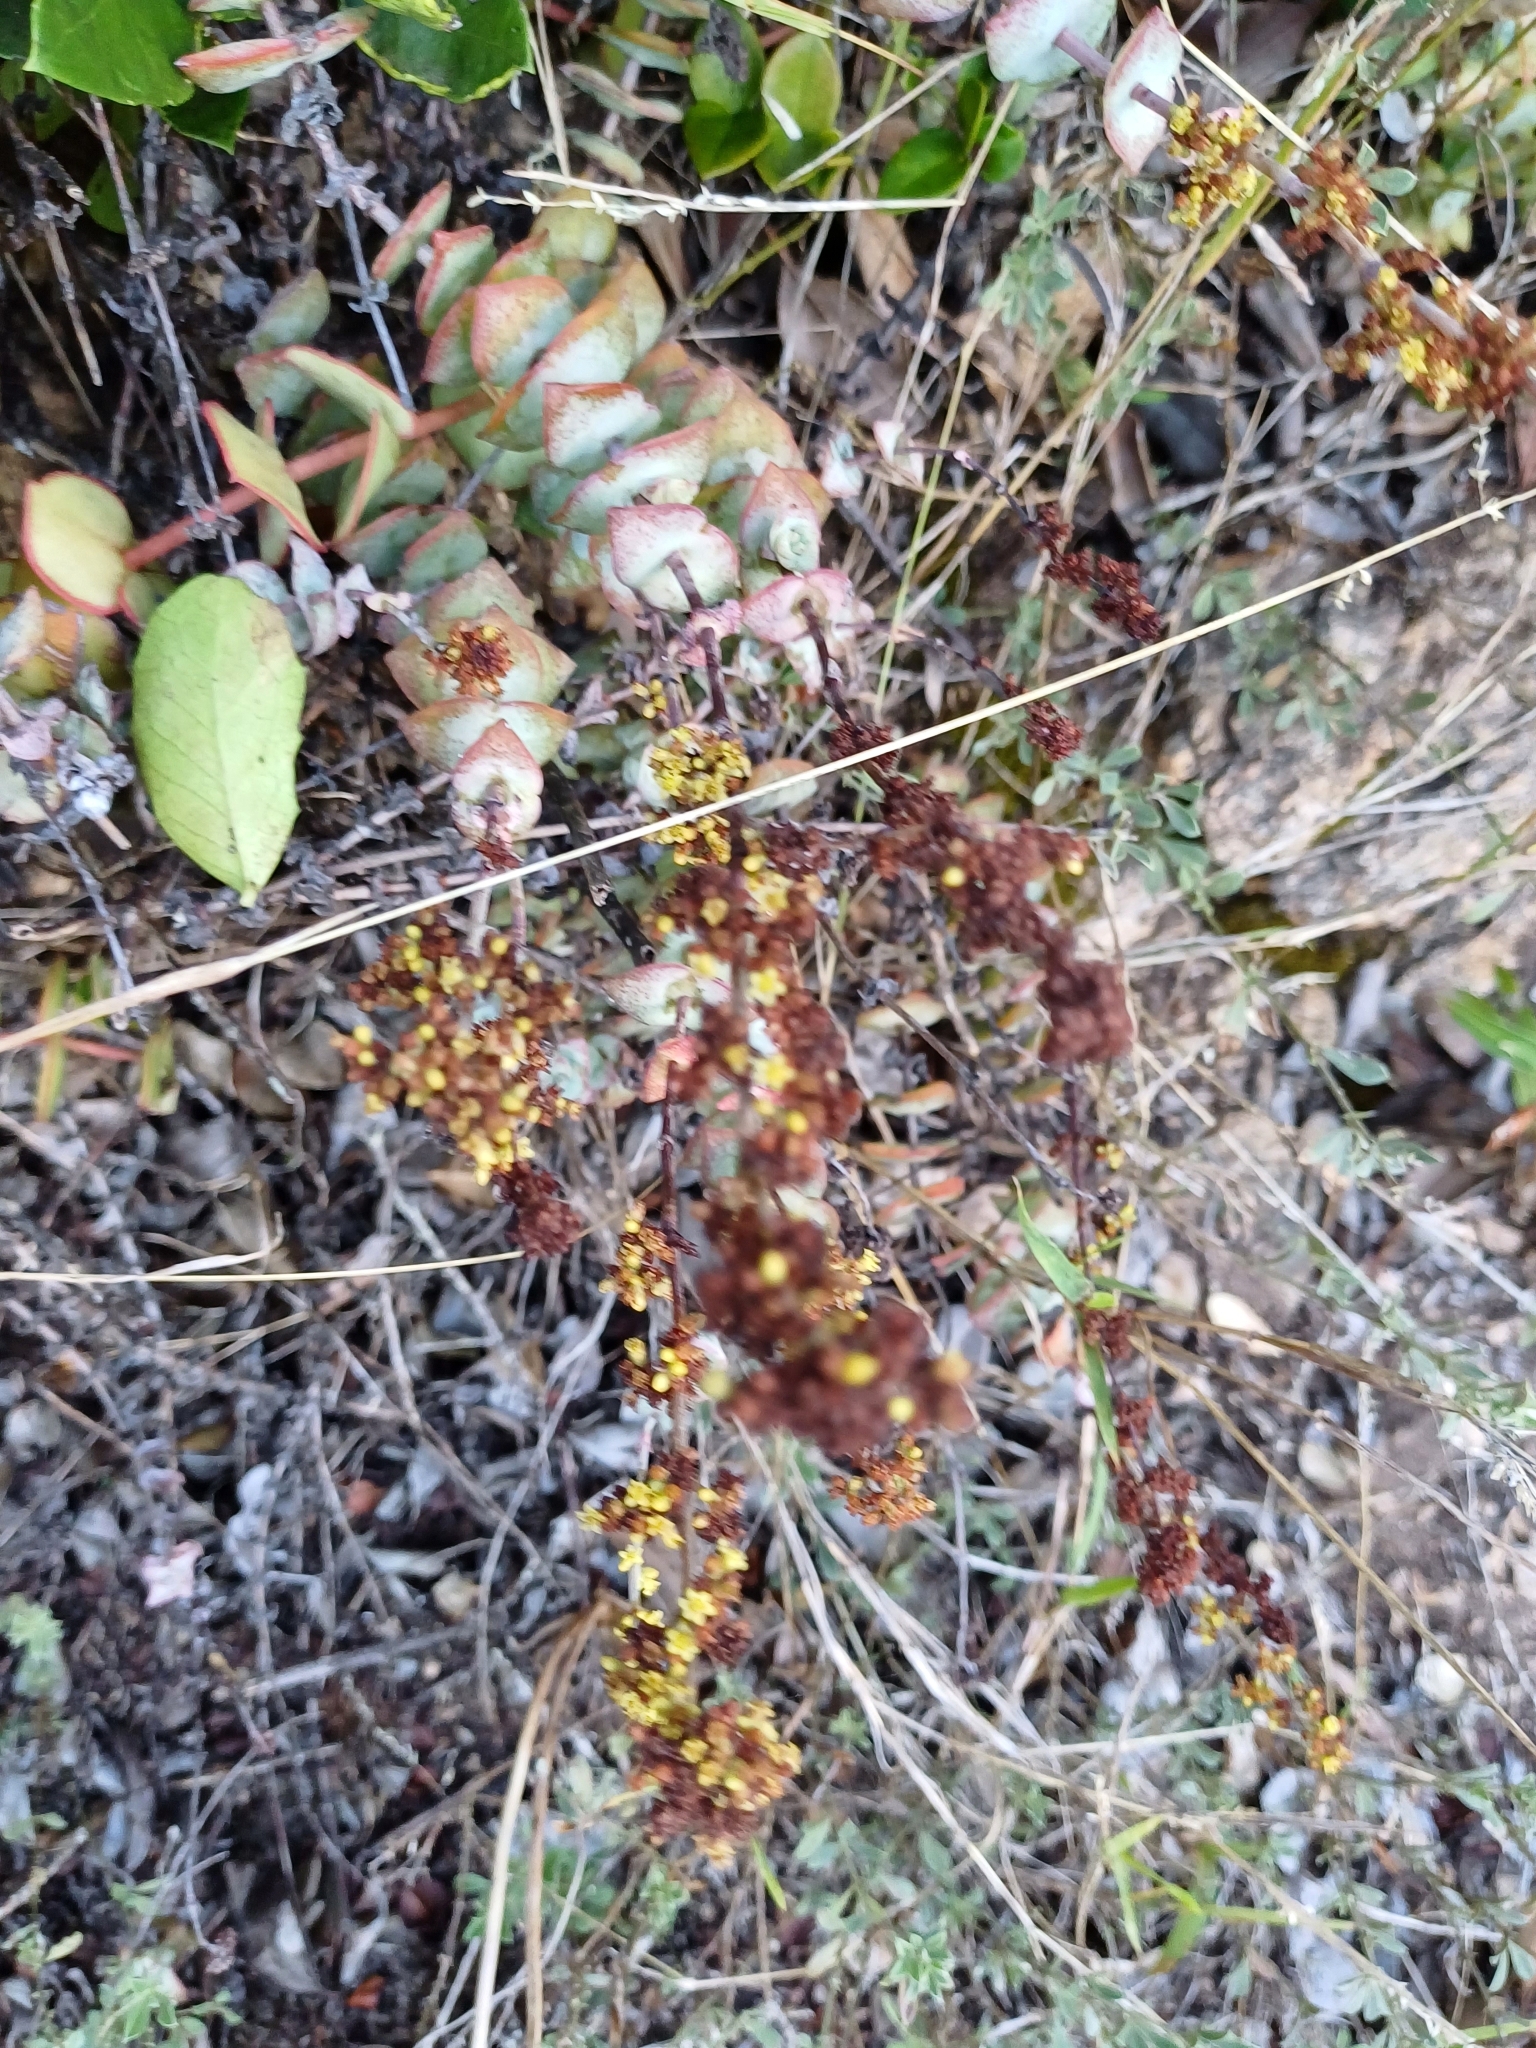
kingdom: Plantae
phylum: Tracheophyta
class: Magnoliopsida
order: Saxifragales
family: Crassulaceae
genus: Crassula
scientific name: Crassula perforata
